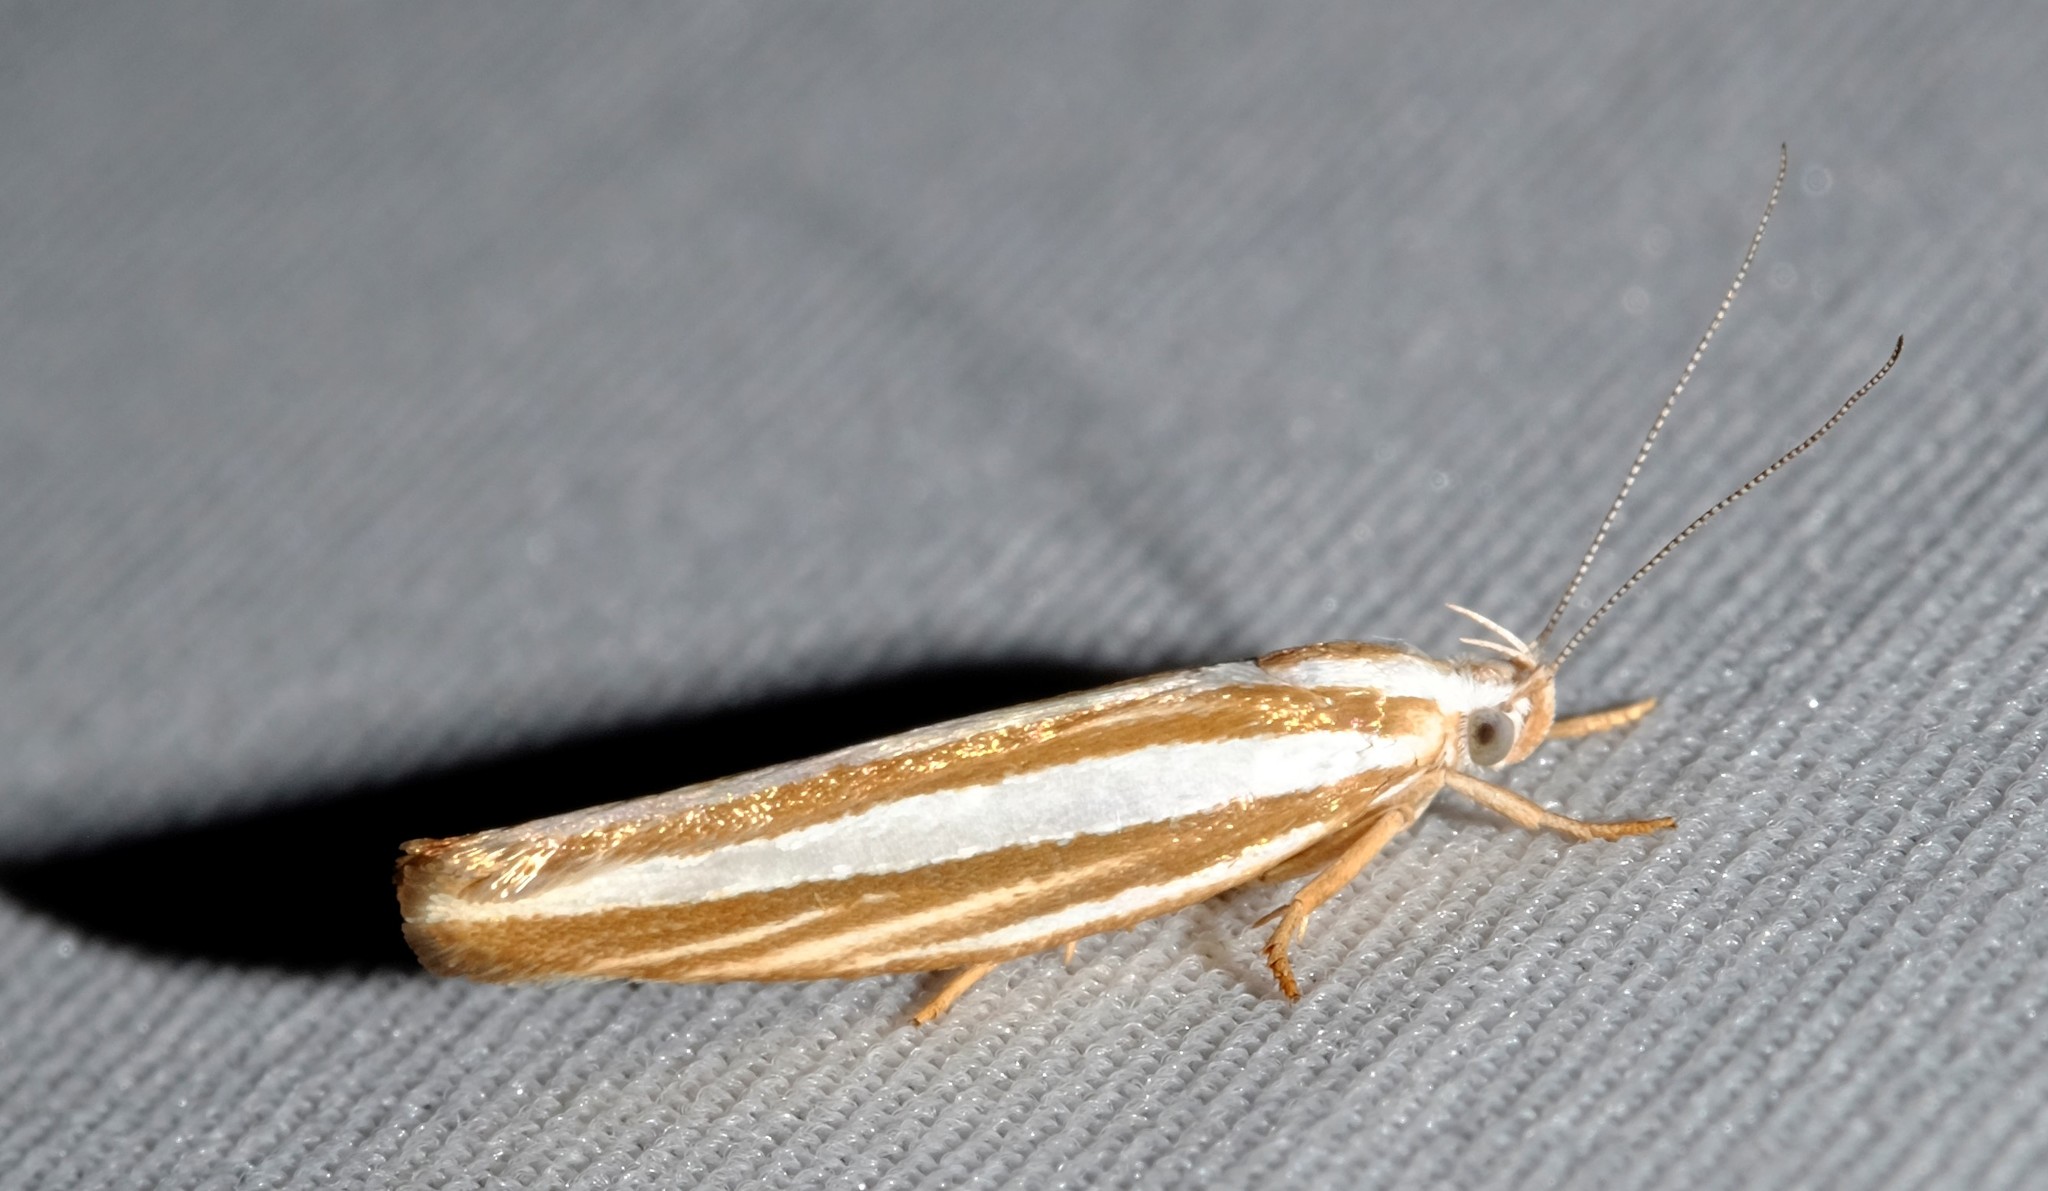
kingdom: Animalia
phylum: Arthropoda
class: Insecta
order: Lepidoptera
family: Xyloryctidae
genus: Catoryctis
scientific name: Catoryctis subparallela
